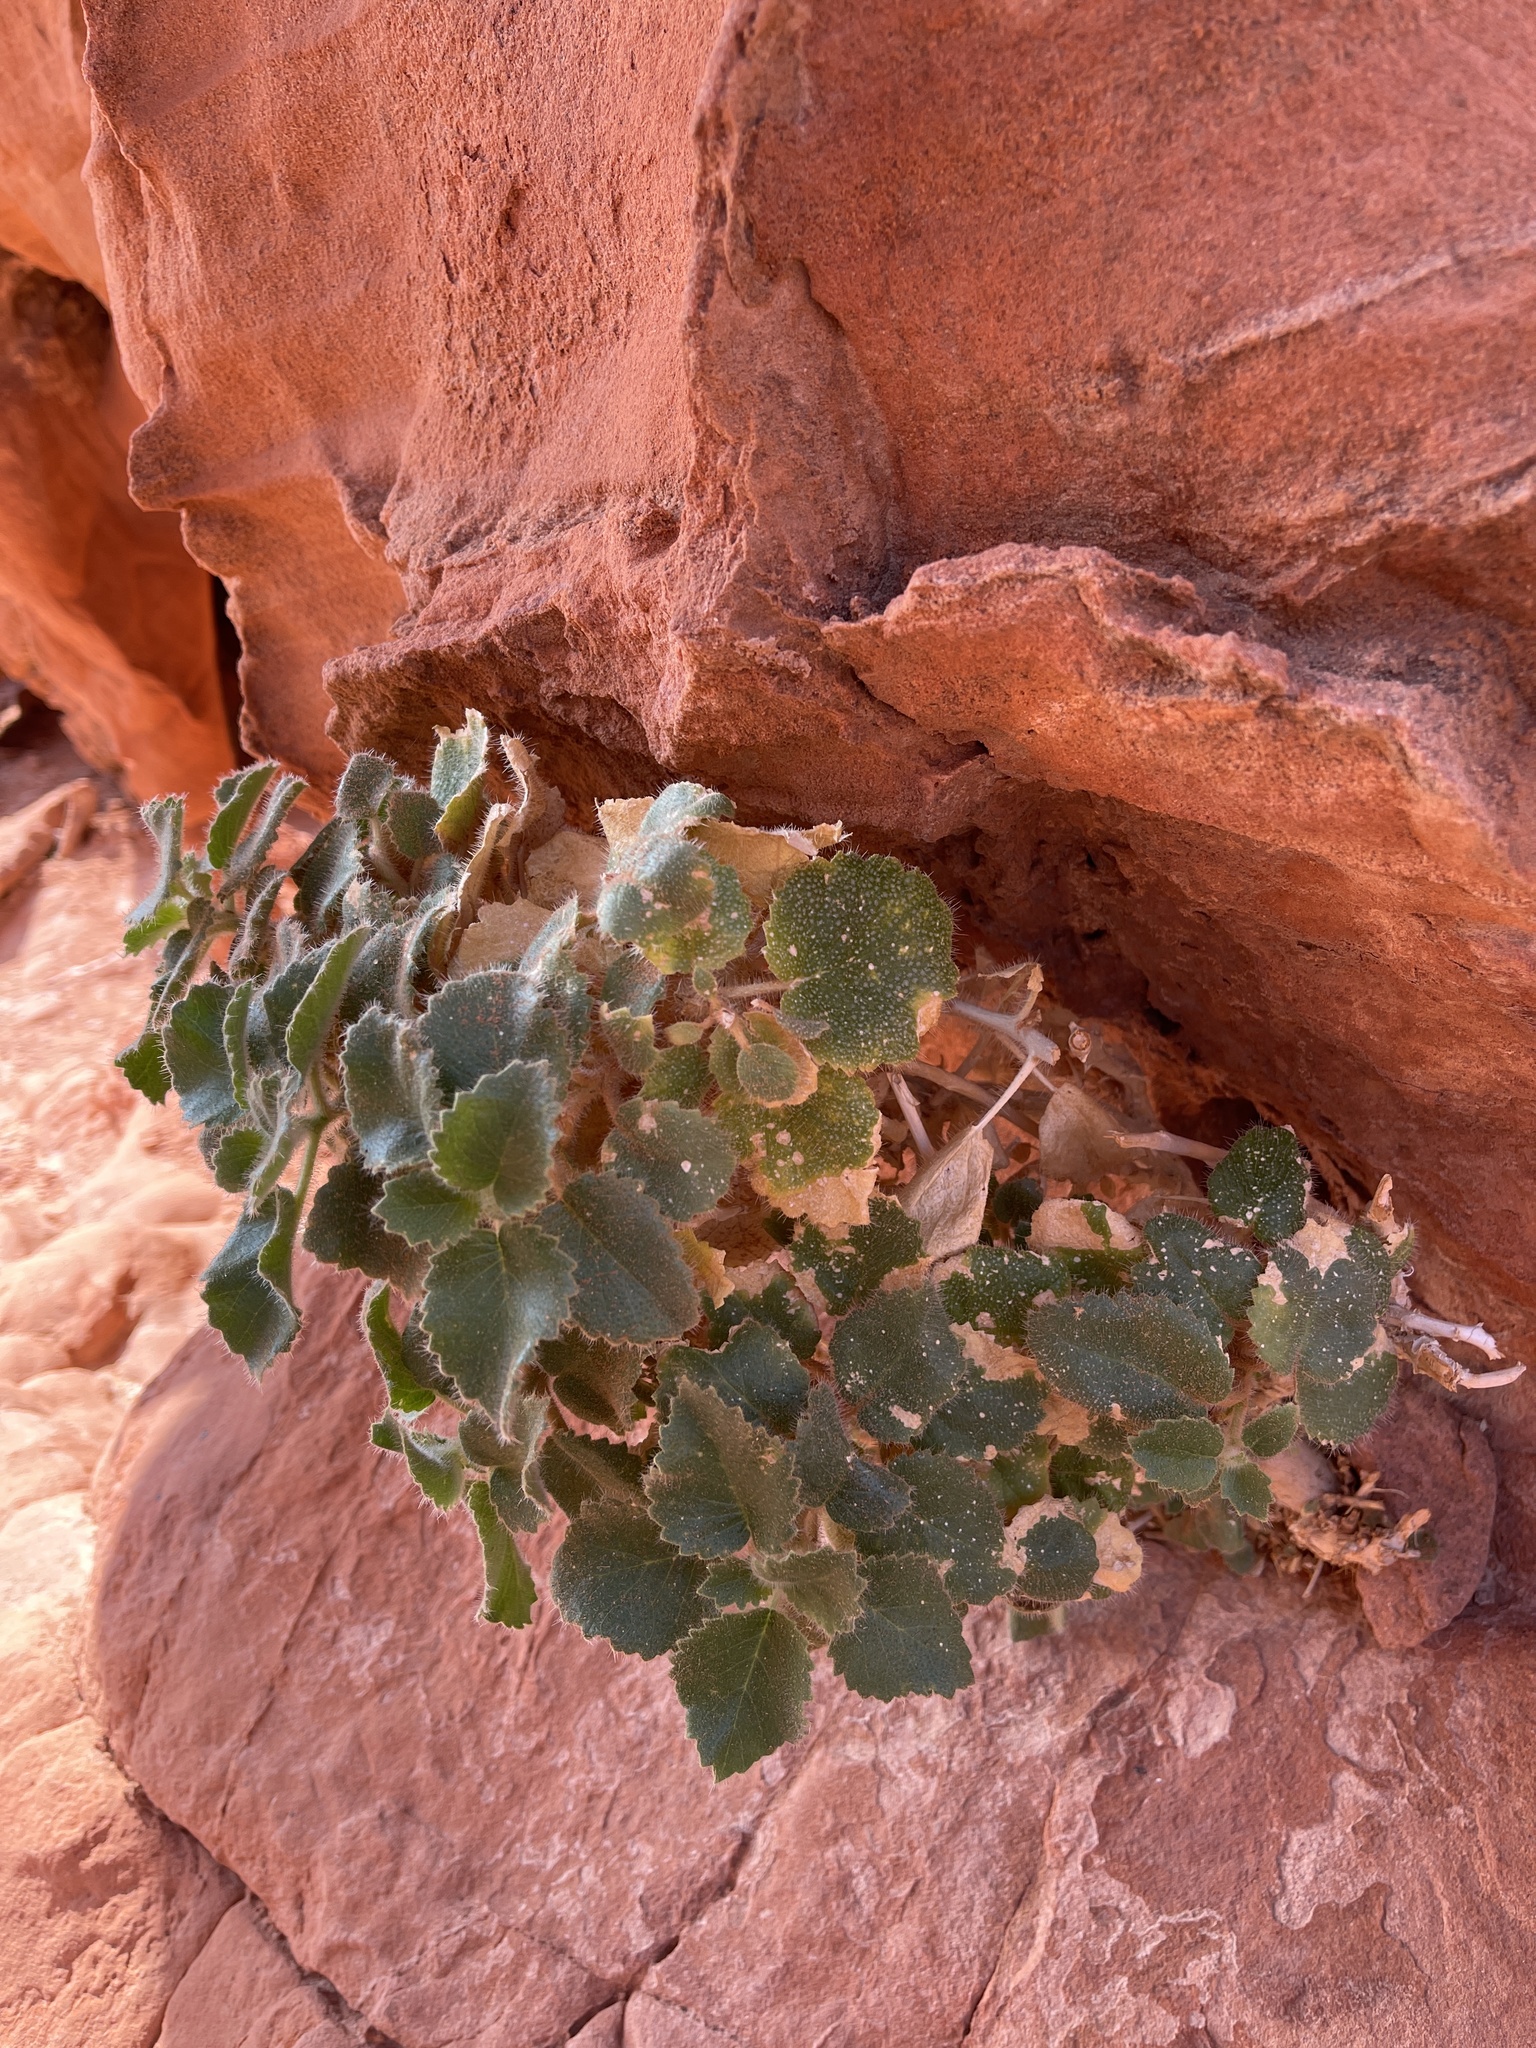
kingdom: Plantae
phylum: Tracheophyta
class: Magnoliopsida
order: Cornales
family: Loasaceae
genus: Eucnide
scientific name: Eucnide urens
